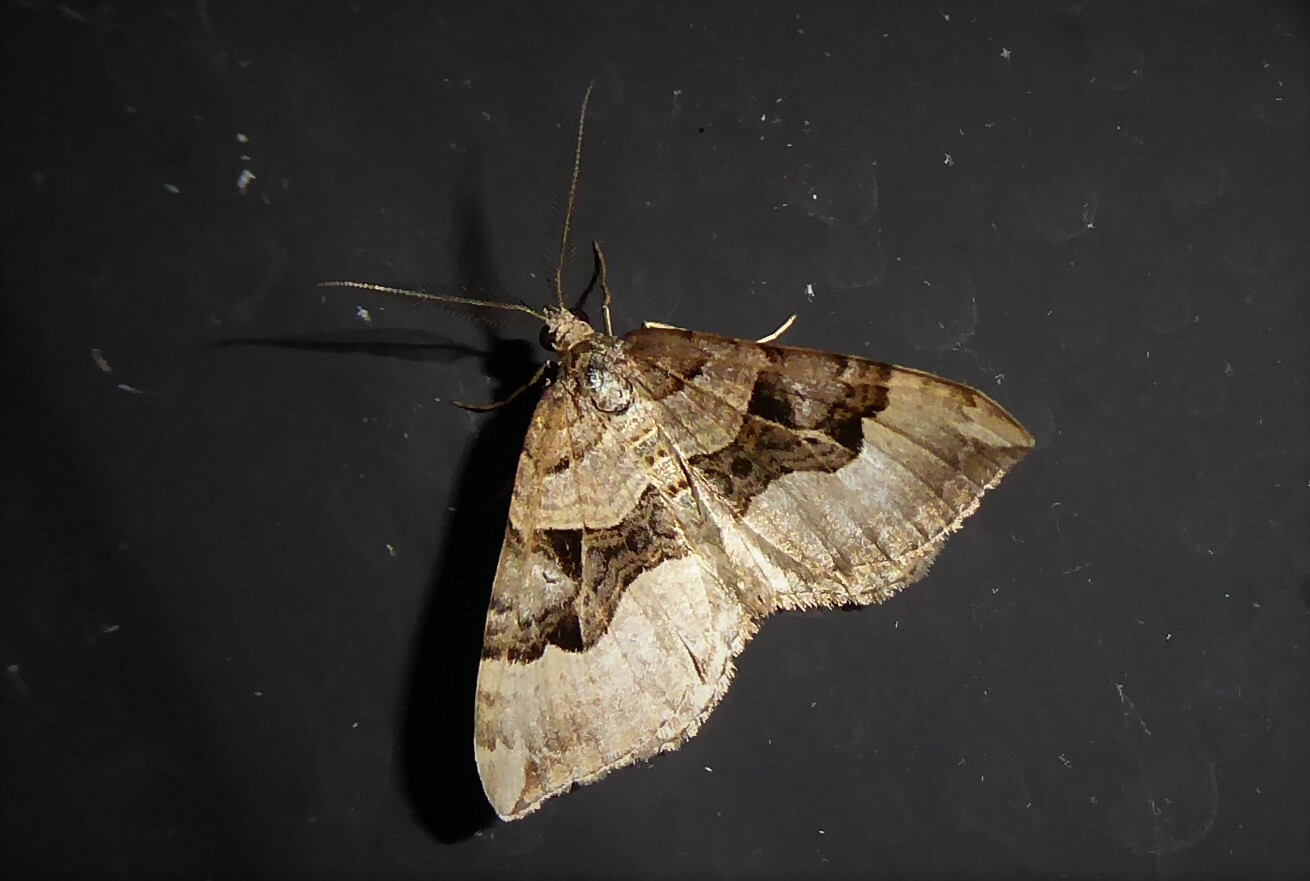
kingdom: Animalia
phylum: Arthropoda
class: Insecta
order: Lepidoptera
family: Geometridae
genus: Xanthorhoe
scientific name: Xanthorhoe semifissata
